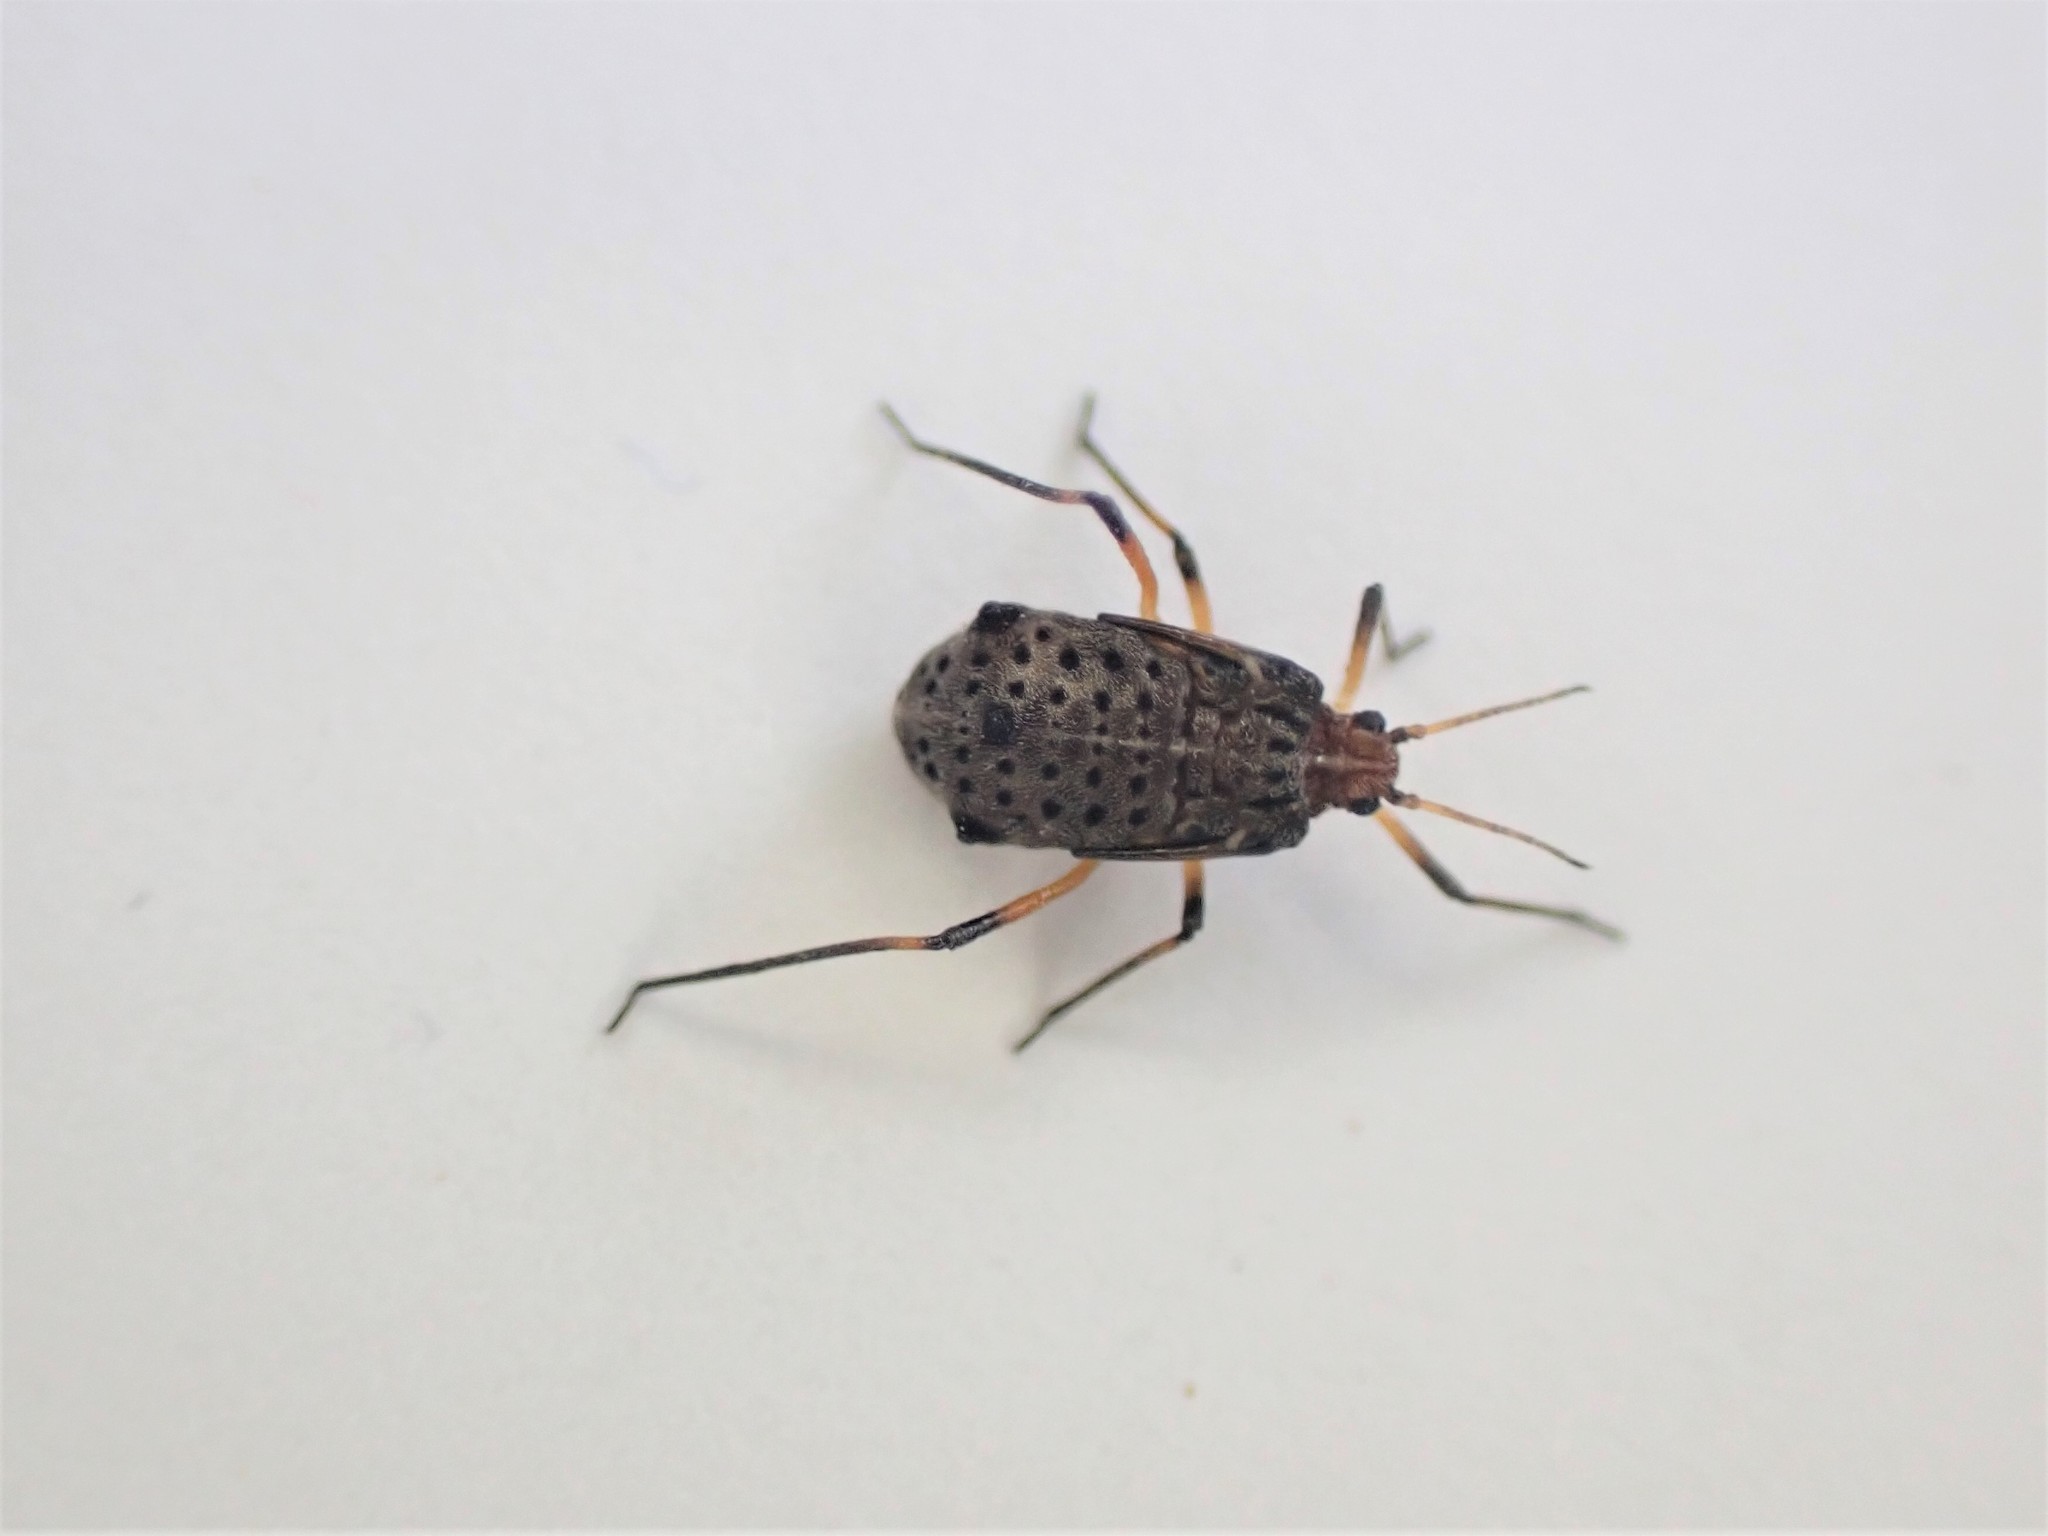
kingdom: Animalia
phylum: Arthropoda
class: Insecta
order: Hemiptera
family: Aphididae
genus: Tuberolachnus
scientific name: Tuberolachnus salignus
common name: Giant willow aphid
